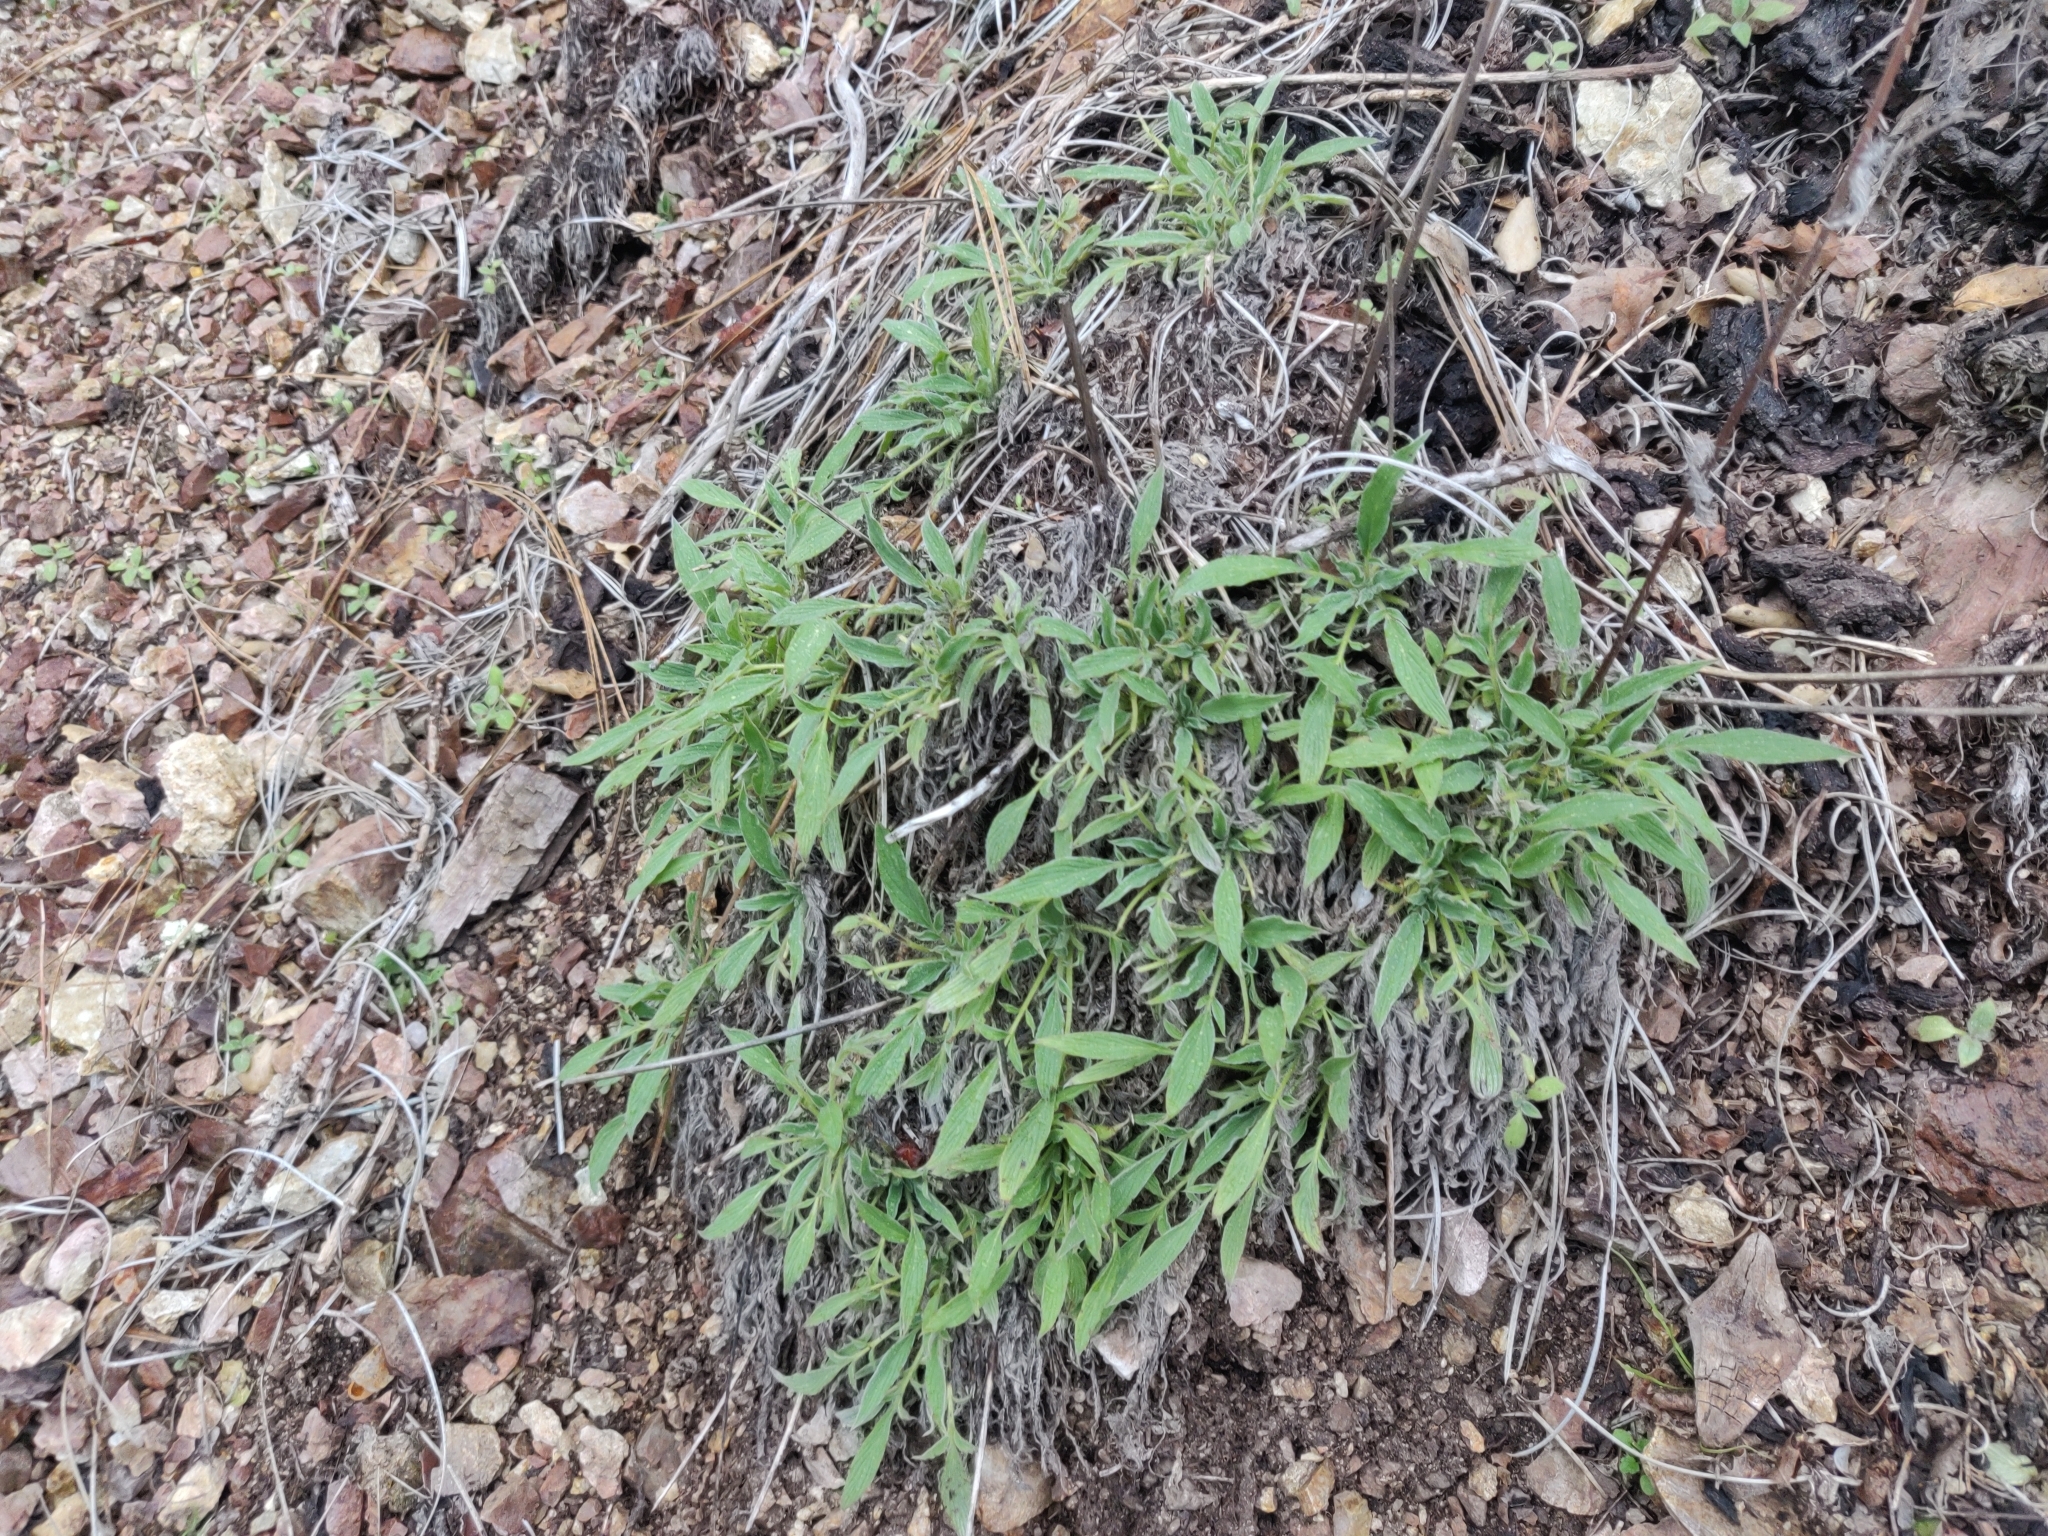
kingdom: Plantae
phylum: Tracheophyta
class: Magnoliopsida
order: Boraginales
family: Hydrophyllaceae
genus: Phacelia
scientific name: Phacelia imbricata
